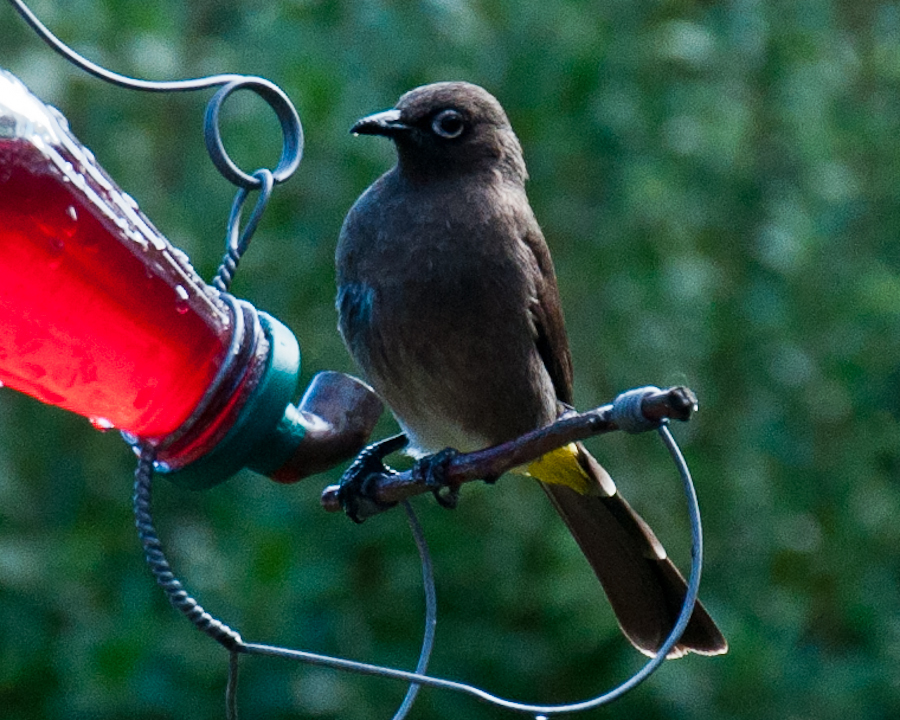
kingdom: Animalia
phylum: Chordata
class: Aves
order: Passeriformes
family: Pycnonotidae
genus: Pycnonotus
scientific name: Pycnonotus capensis
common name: Cape bulbul
